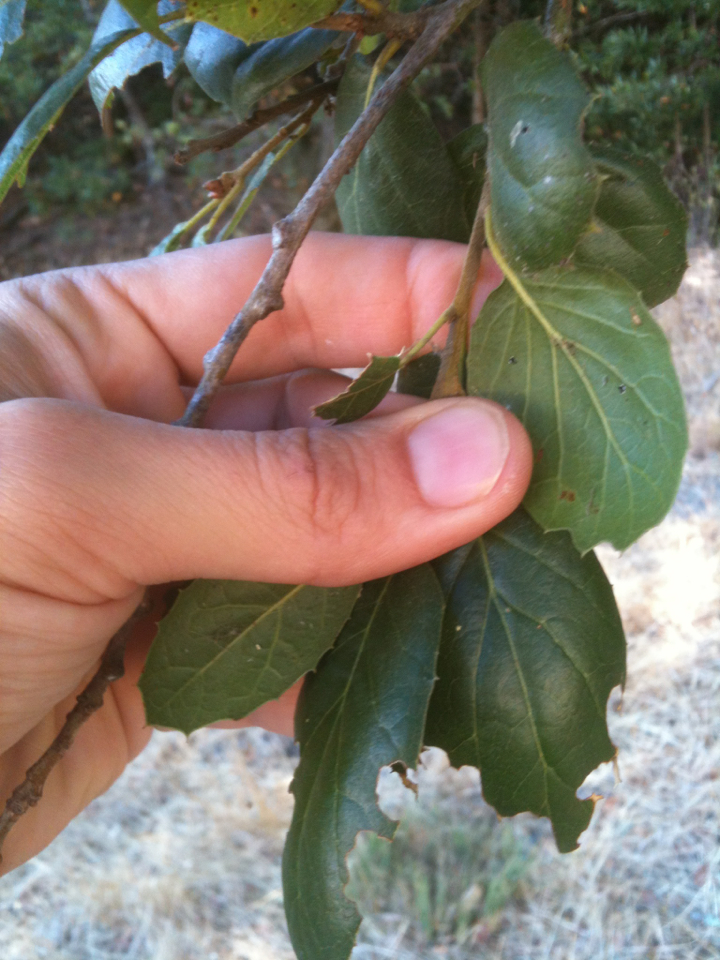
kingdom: Plantae
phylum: Tracheophyta
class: Magnoliopsida
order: Fagales
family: Fagaceae
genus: Quercus
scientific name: Quercus agrifolia
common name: California live oak
